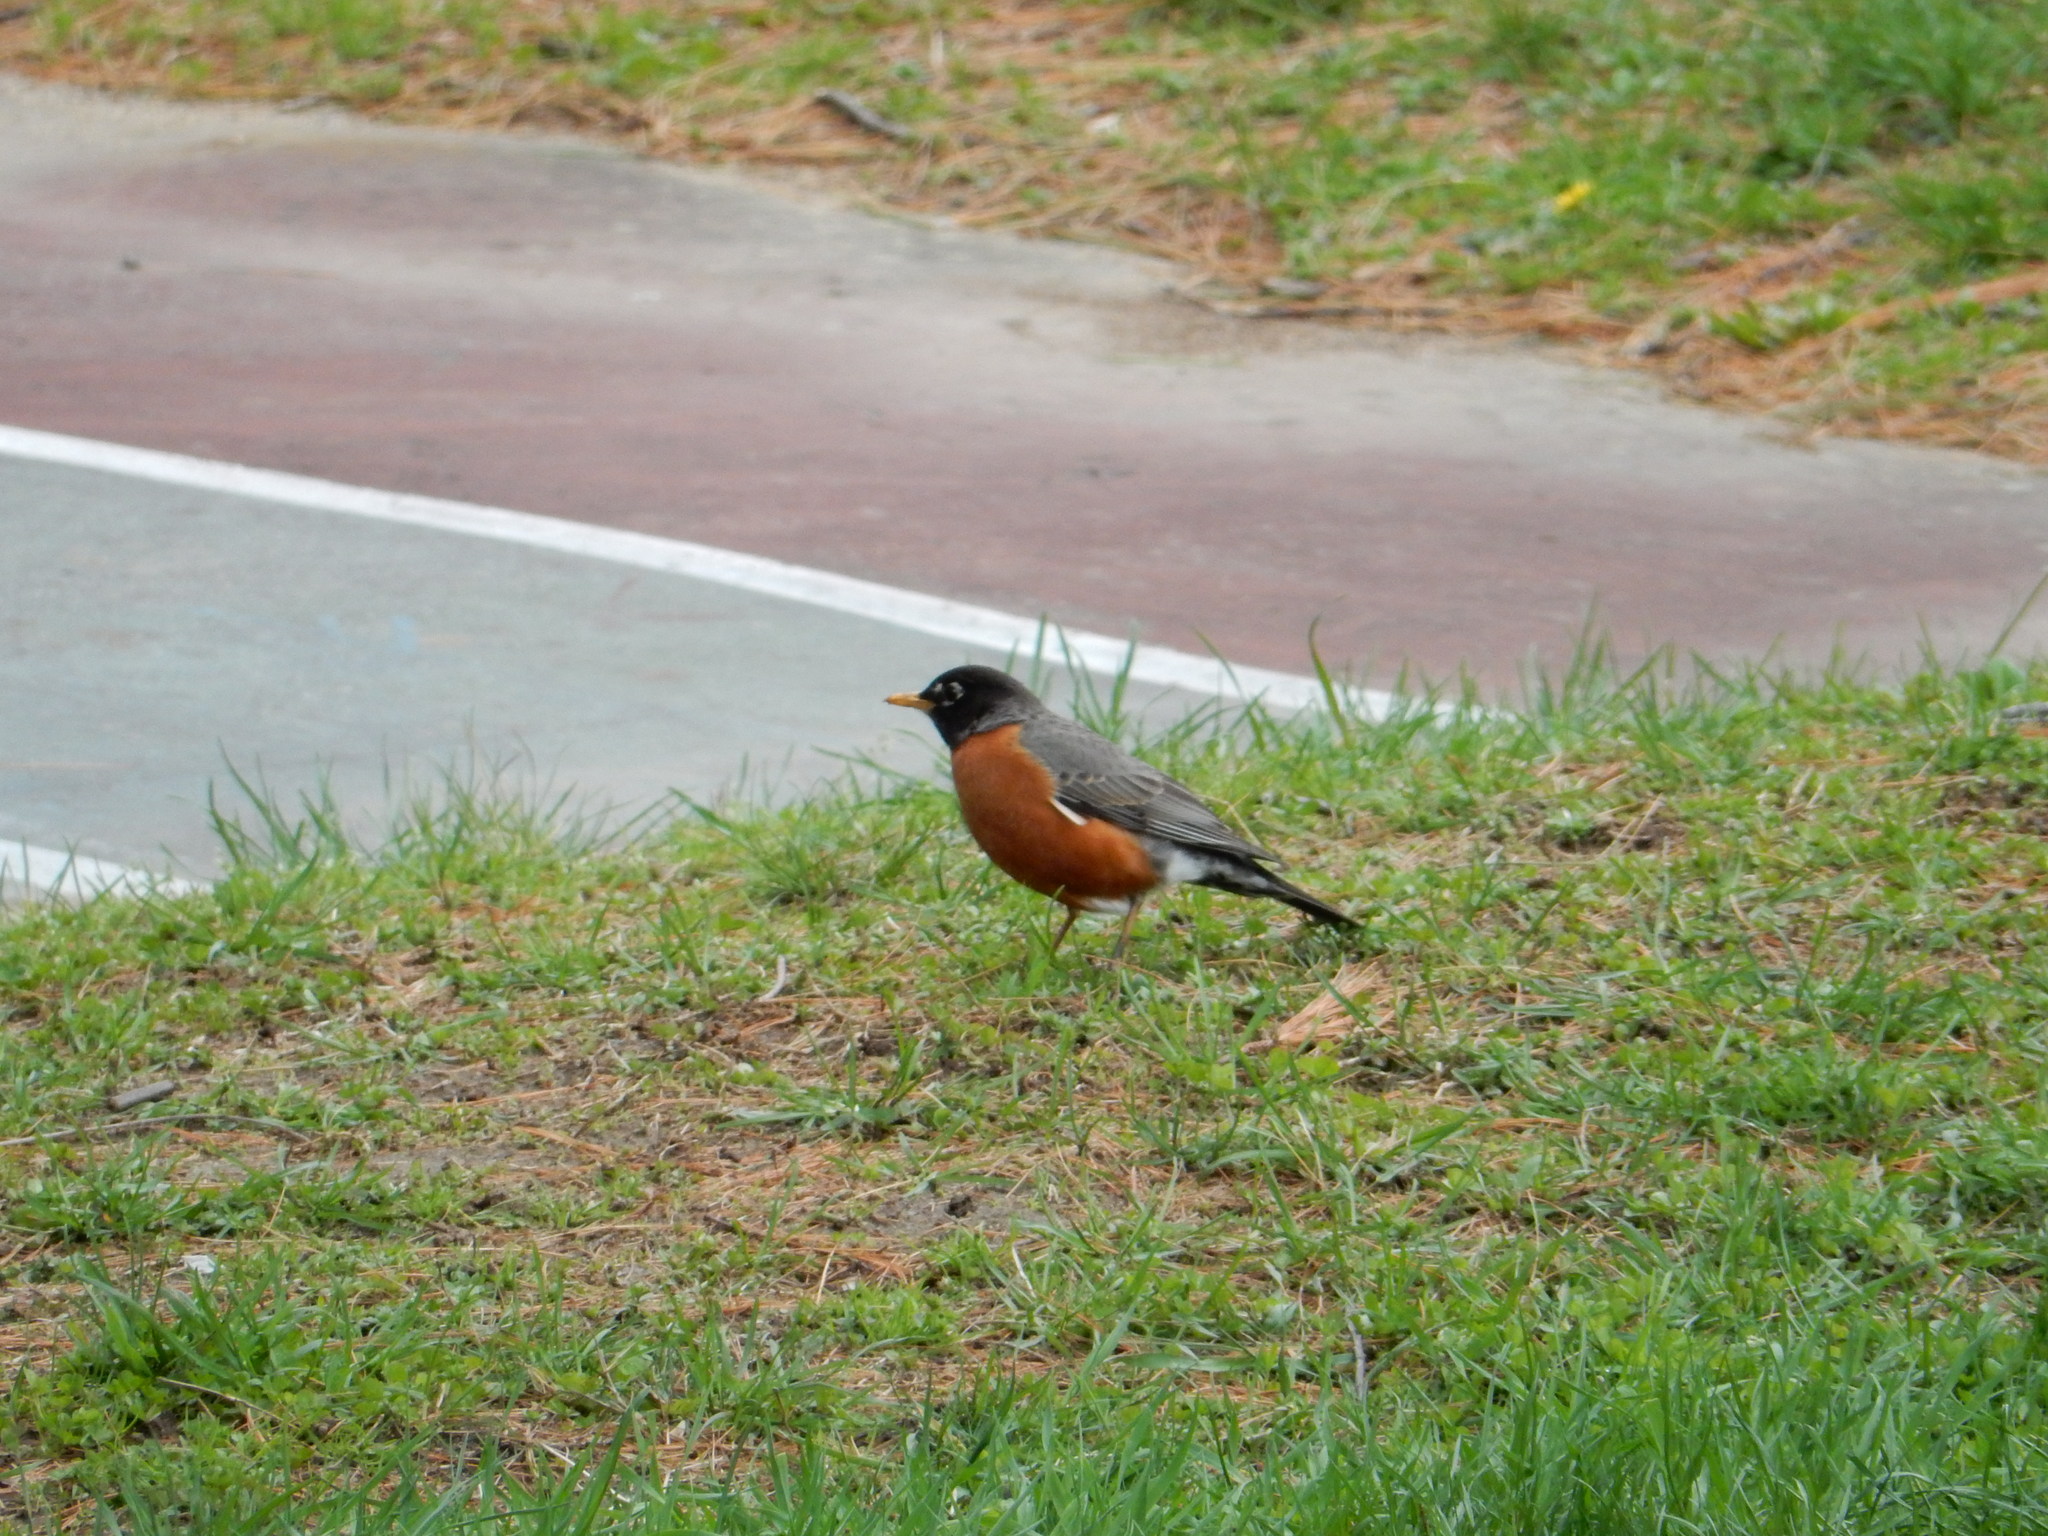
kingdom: Animalia
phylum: Chordata
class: Aves
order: Passeriformes
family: Turdidae
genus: Turdus
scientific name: Turdus migratorius
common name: American robin
